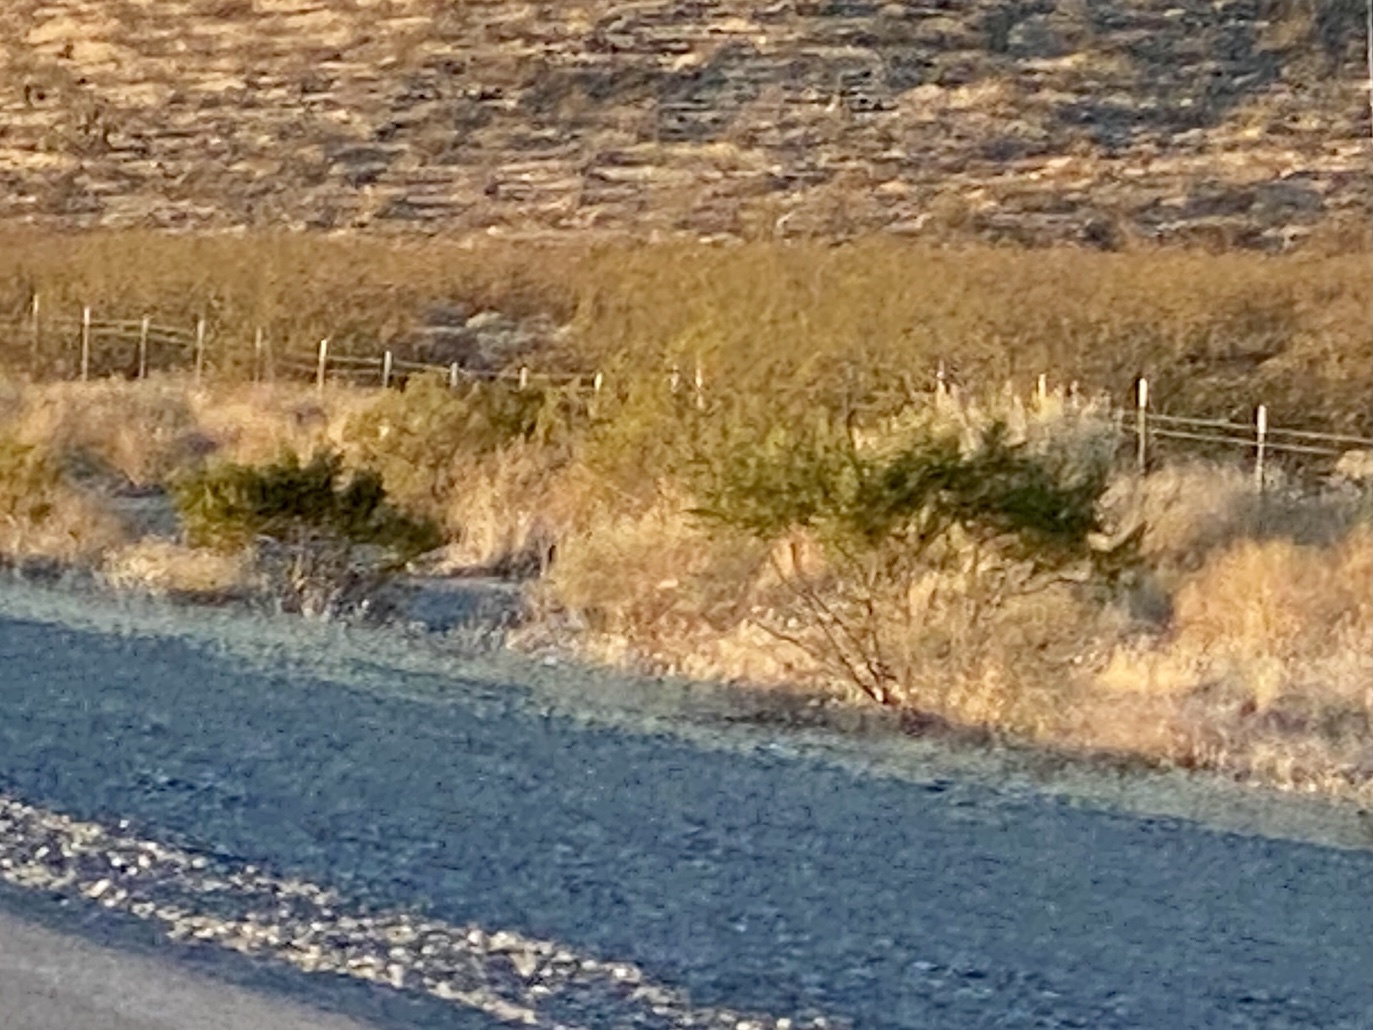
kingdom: Plantae
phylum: Tracheophyta
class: Magnoliopsida
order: Zygophyllales
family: Zygophyllaceae
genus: Larrea
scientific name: Larrea tridentata
